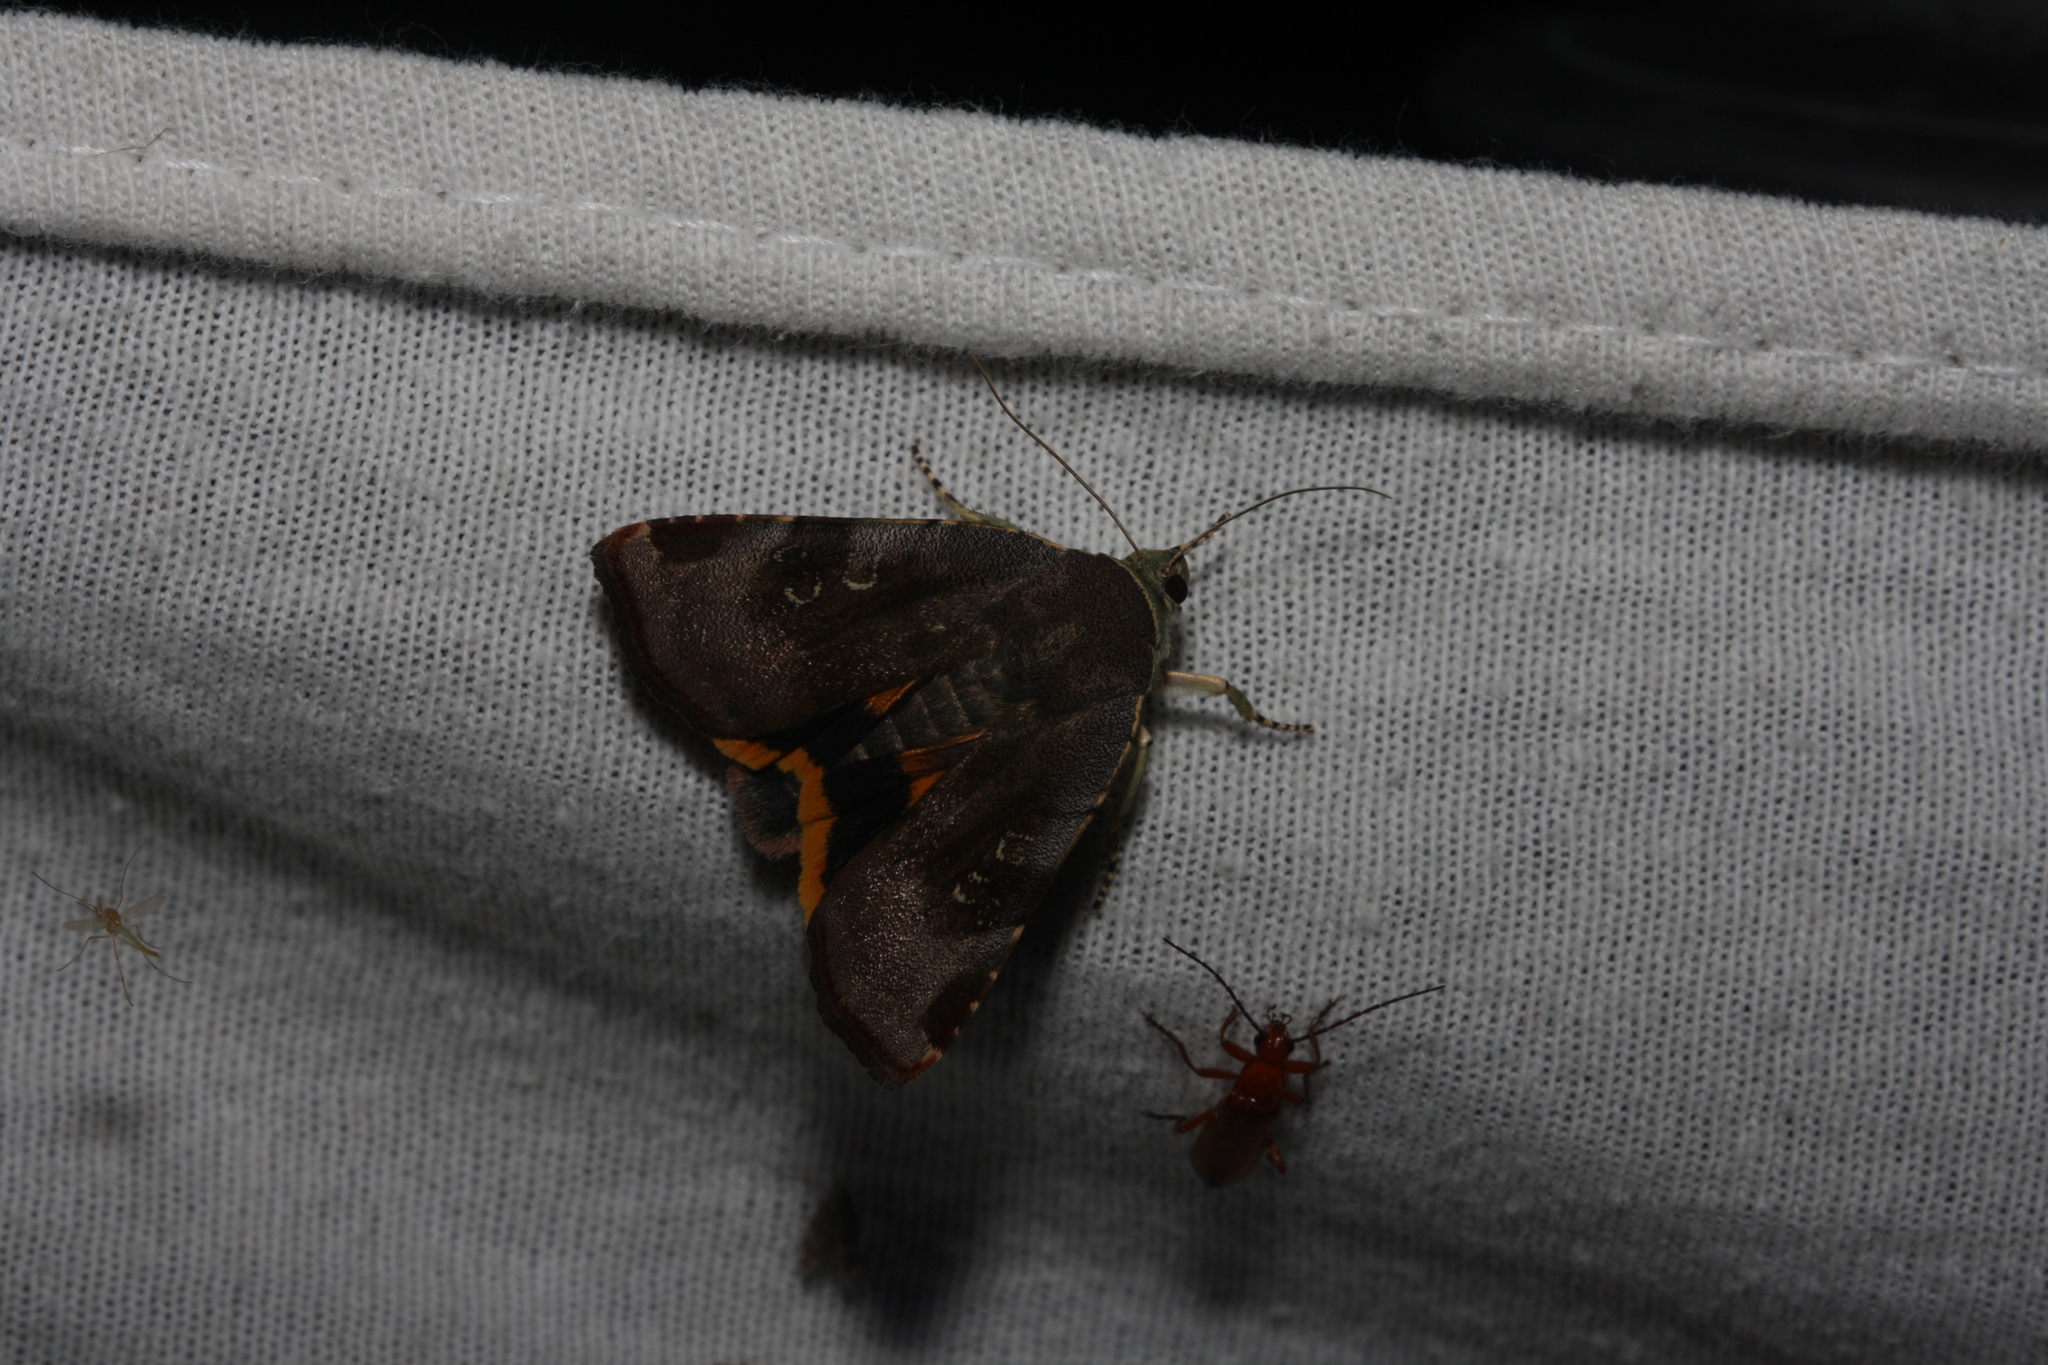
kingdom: Animalia
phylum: Arthropoda
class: Insecta
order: Lepidoptera
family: Noctuidae
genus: Noctua
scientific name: Noctua
